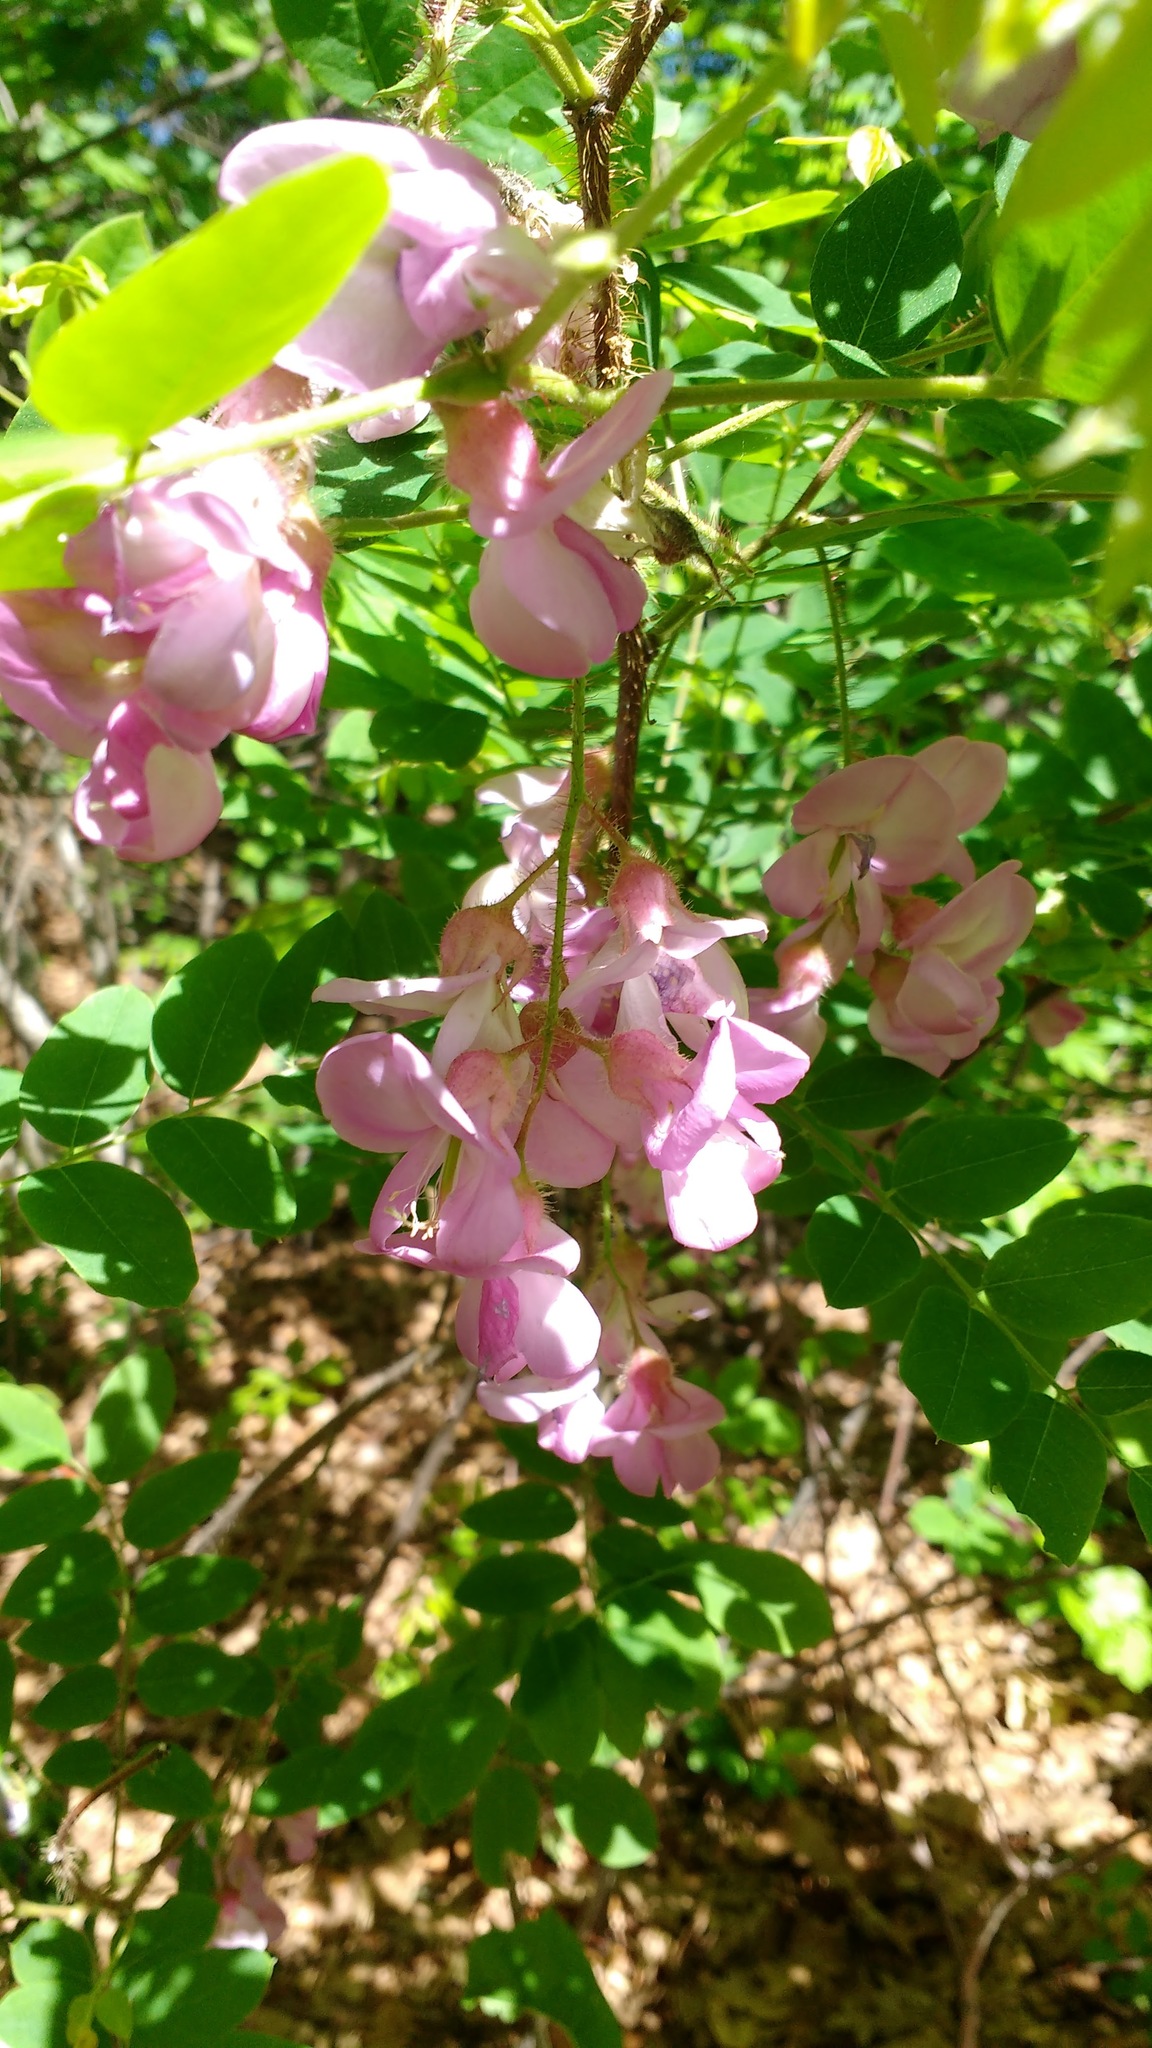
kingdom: Plantae
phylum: Tracheophyta
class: Magnoliopsida
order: Fabales
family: Fabaceae
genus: Robinia
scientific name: Robinia hispida
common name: Bristly locust
